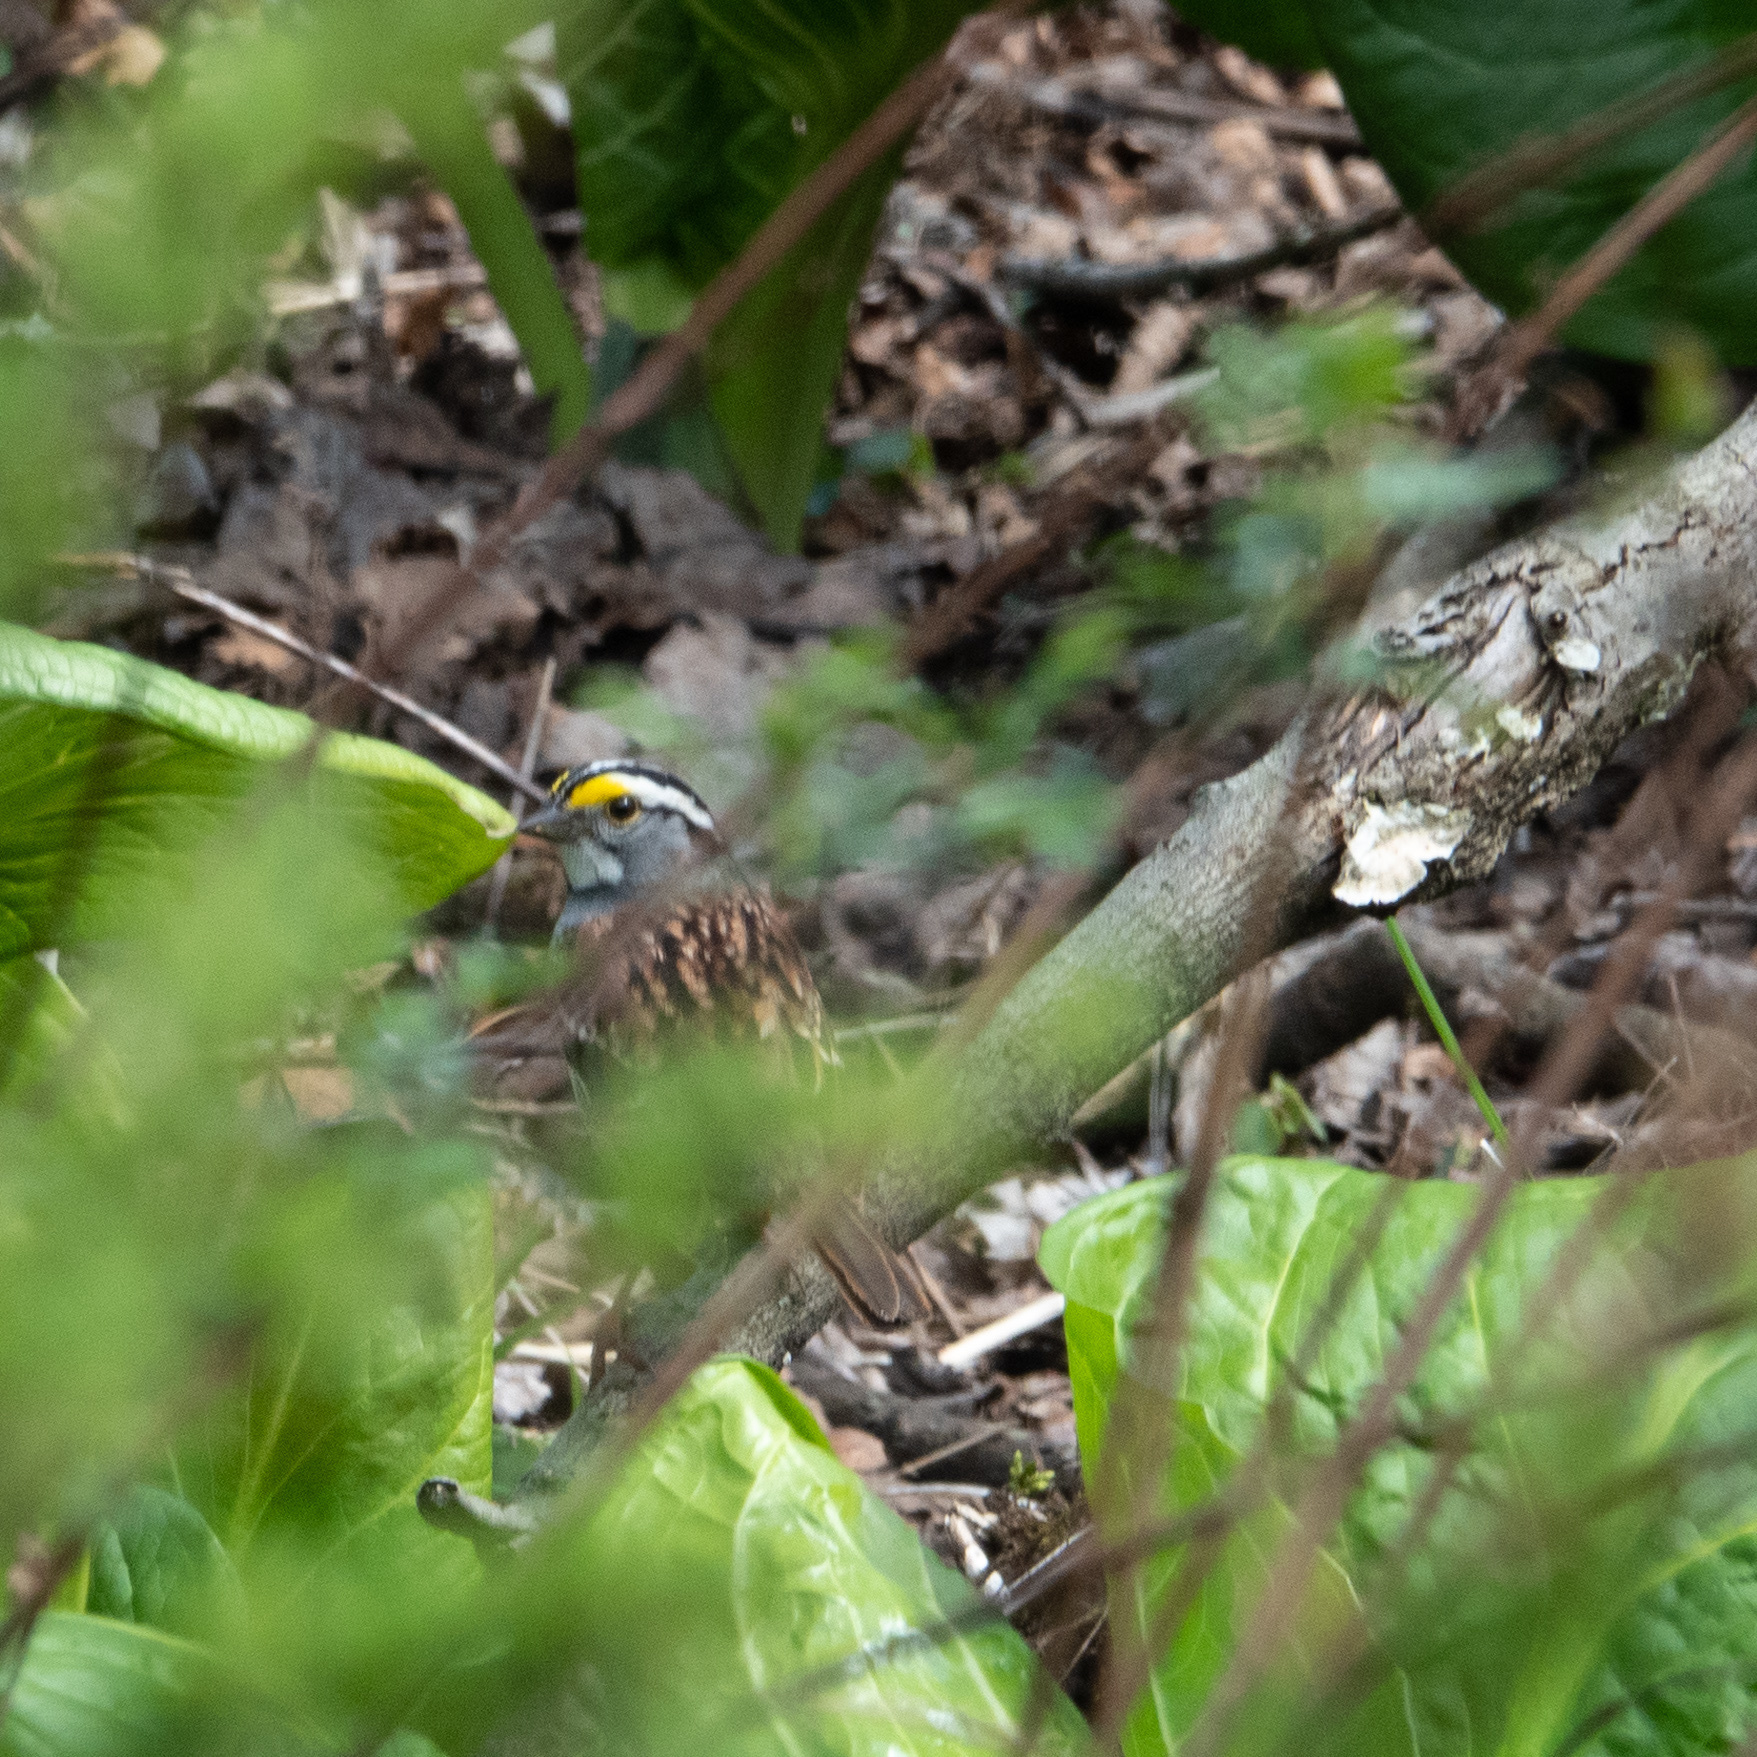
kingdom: Animalia
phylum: Chordata
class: Aves
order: Passeriformes
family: Passerellidae
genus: Zonotrichia
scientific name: Zonotrichia albicollis
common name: White-throated sparrow
